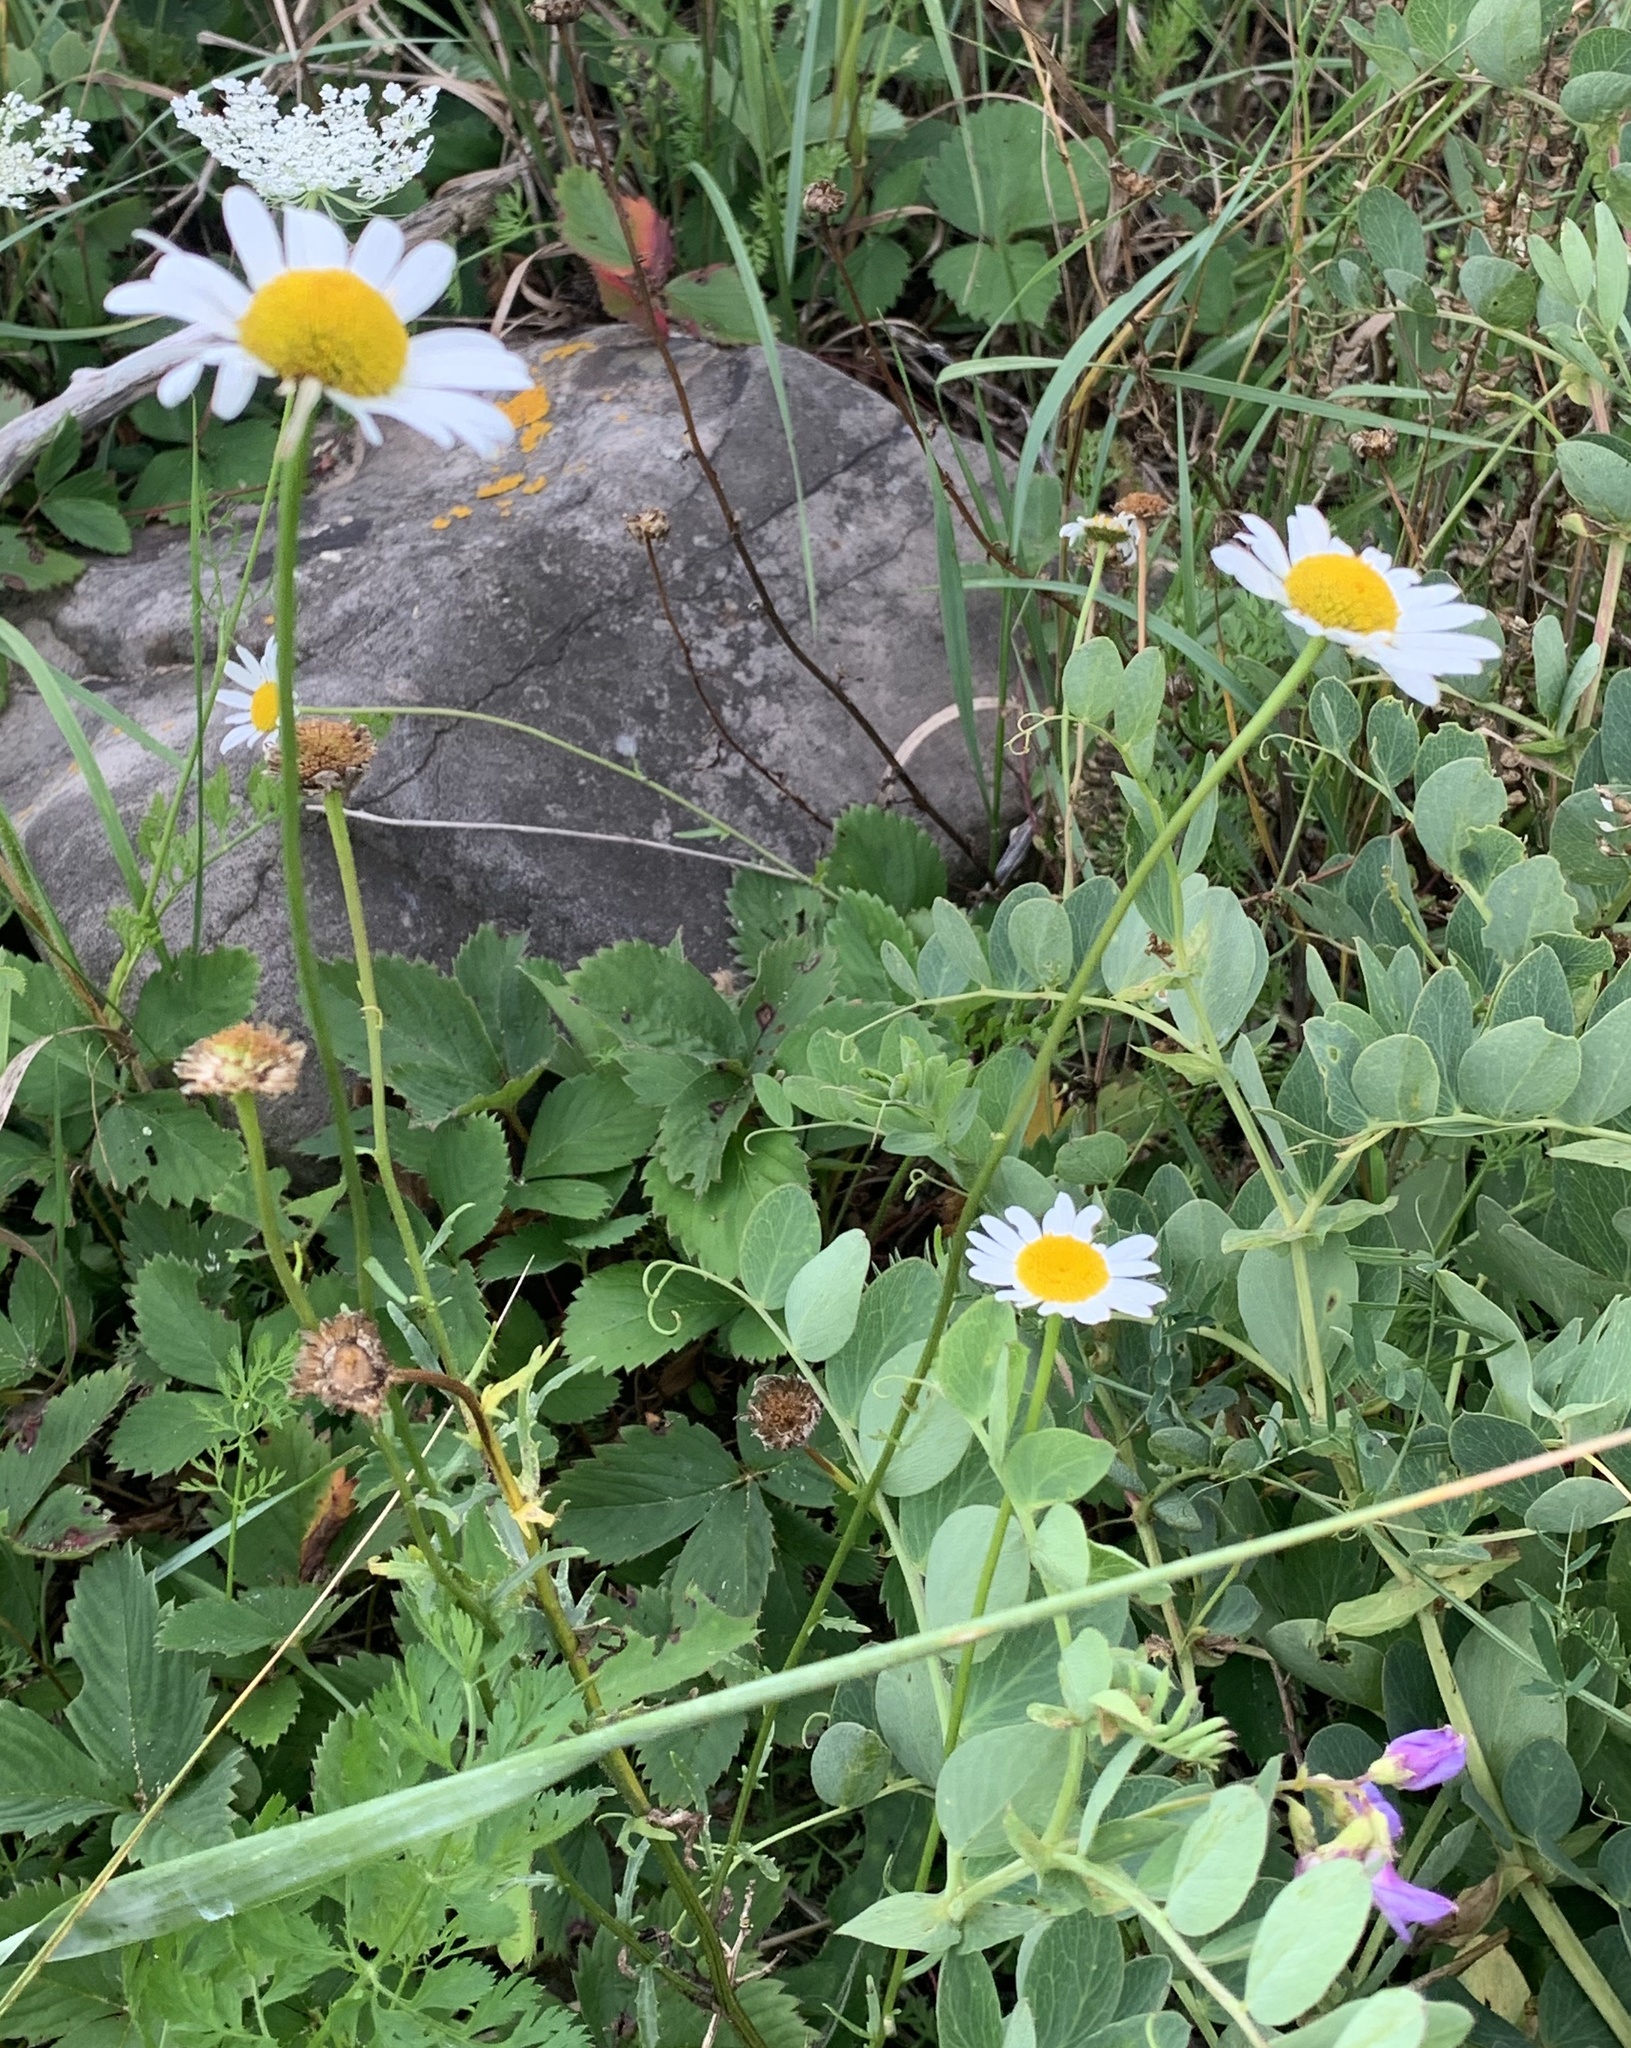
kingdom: Plantae
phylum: Tracheophyta
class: Magnoliopsida
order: Asterales
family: Asteraceae
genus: Leucanthemum
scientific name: Leucanthemum vulgare
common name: Oxeye daisy
